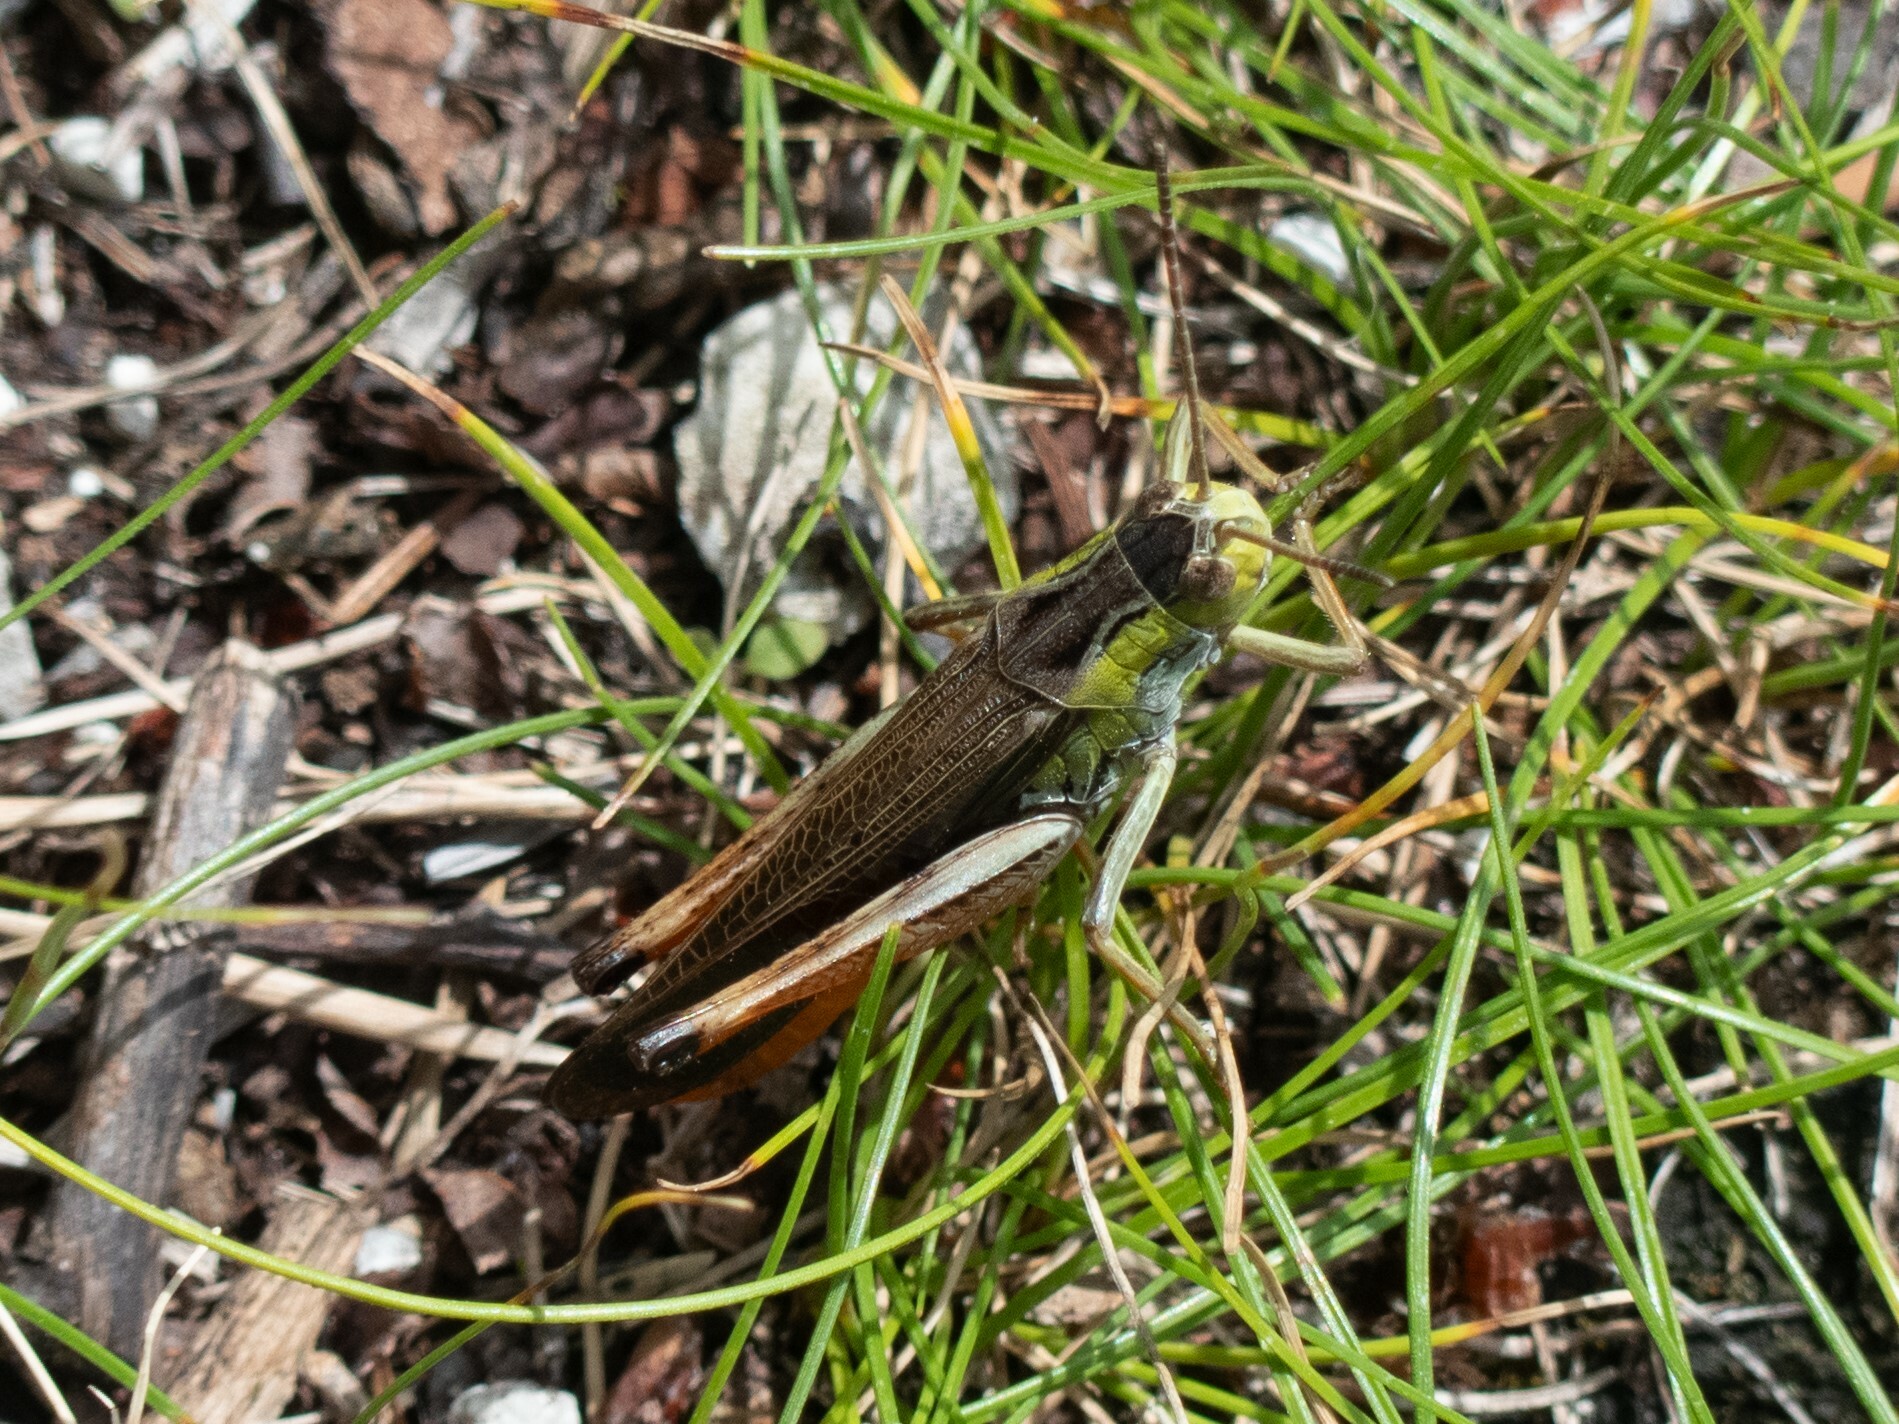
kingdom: Animalia
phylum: Arthropoda
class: Insecta
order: Orthoptera
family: Acrididae
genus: Stauroderus
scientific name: Stauroderus scalaris
